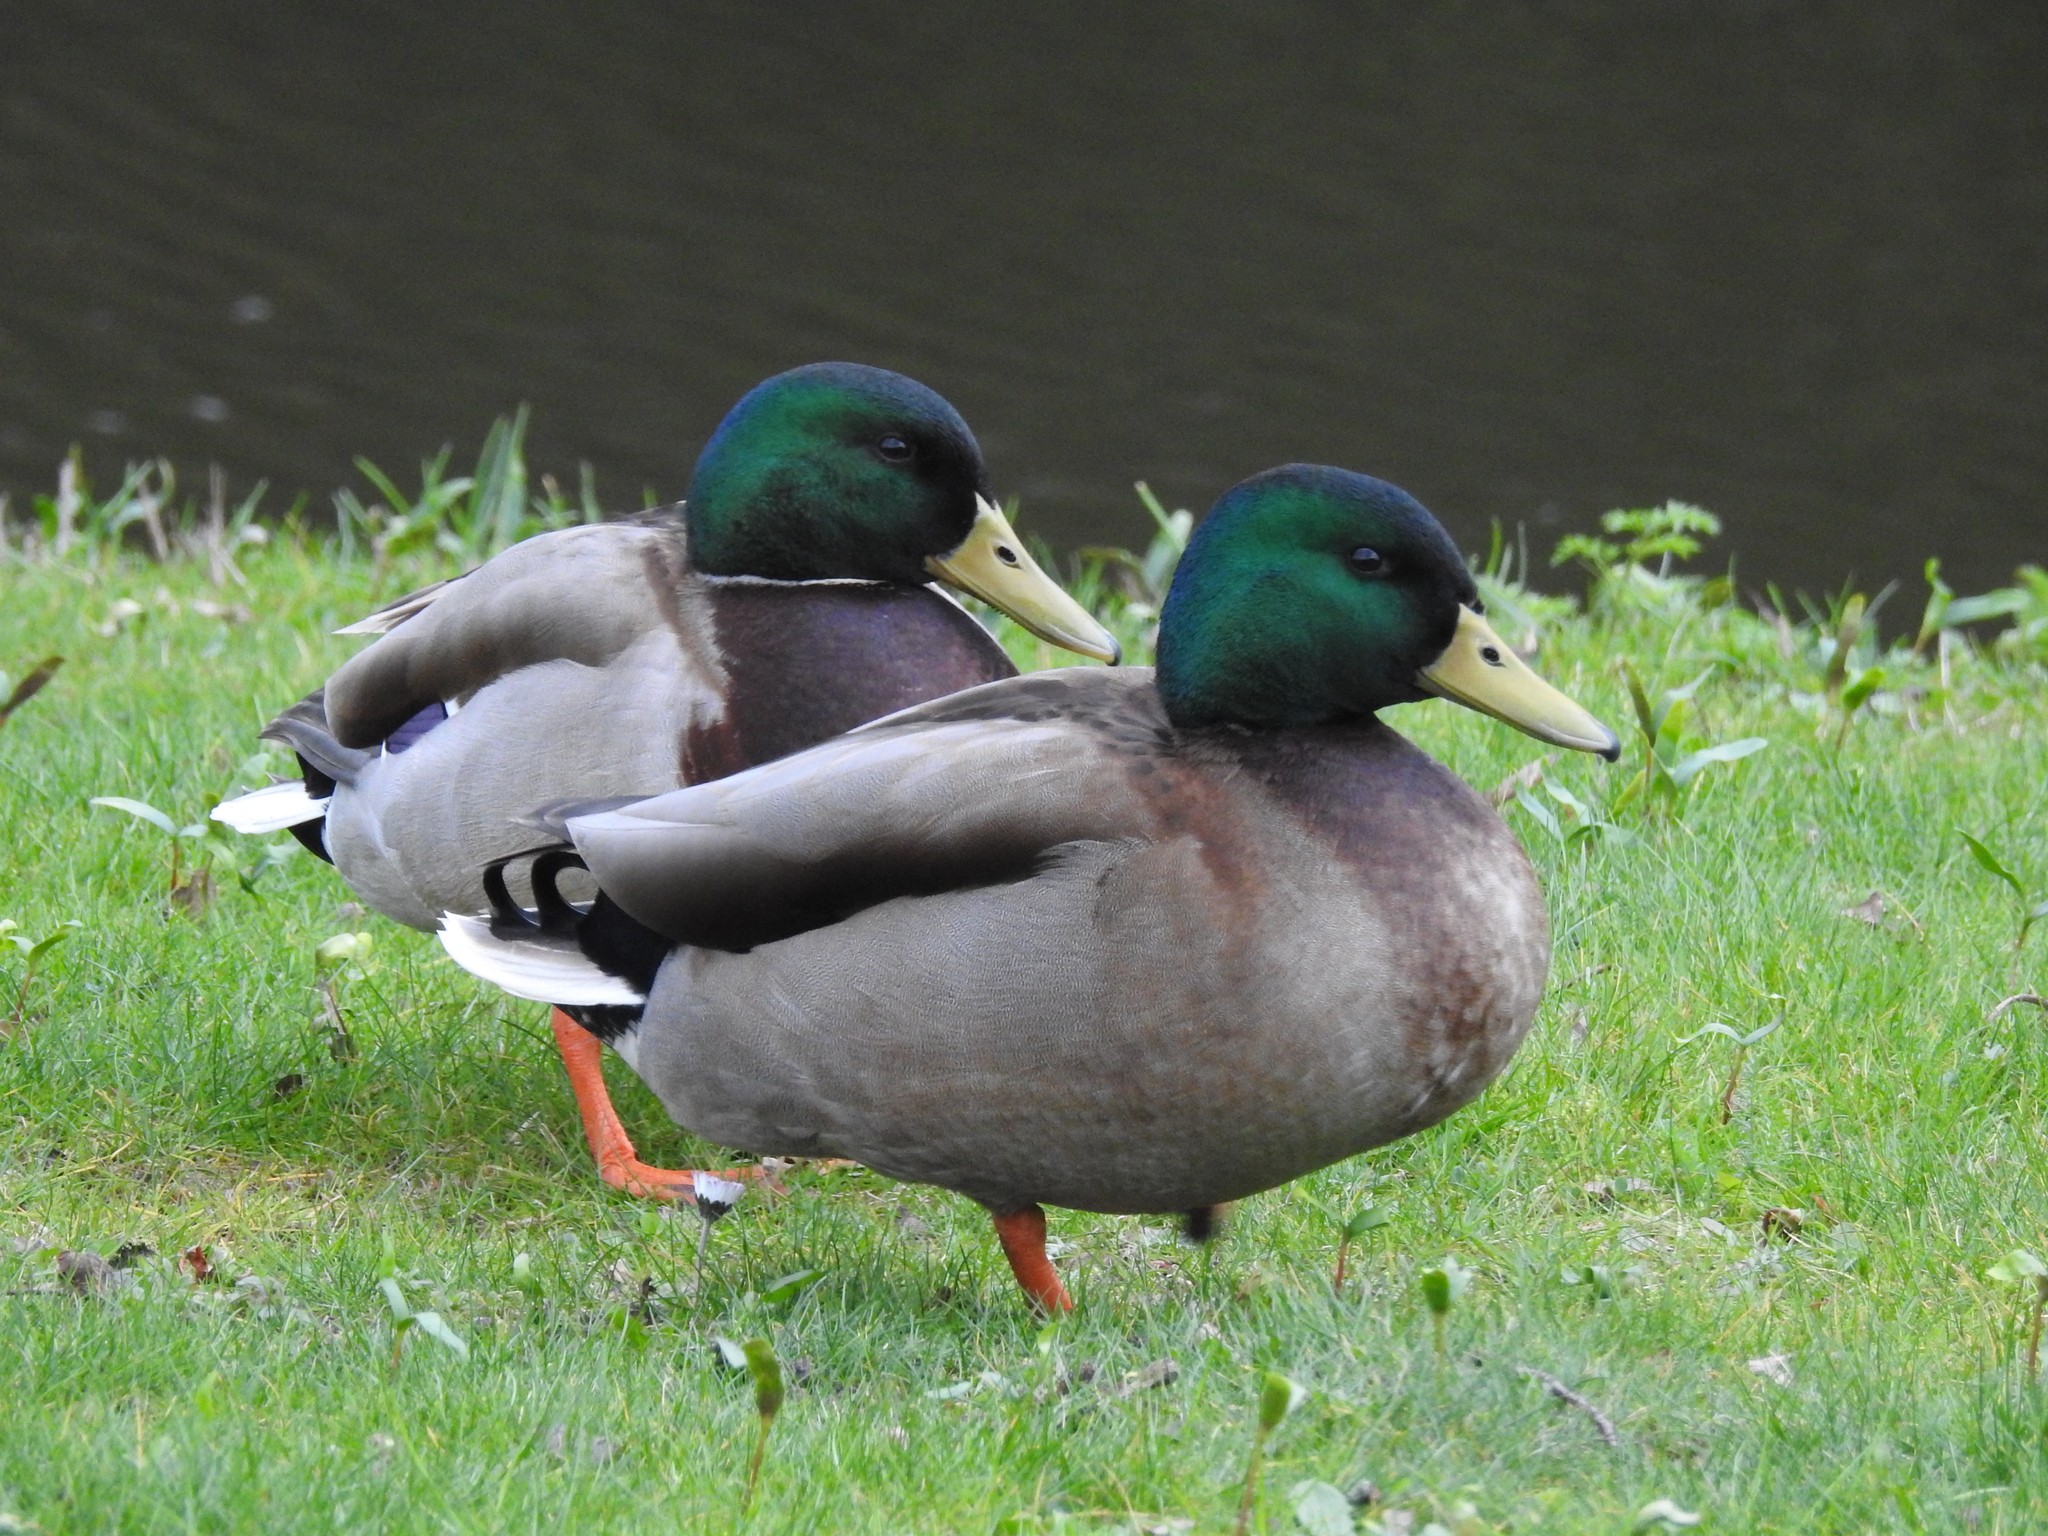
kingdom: Animalia
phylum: Chordata
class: Aves
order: Anseriformes
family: Anatidae
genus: Anas
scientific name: Anas platyrhynchos
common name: Mallard
